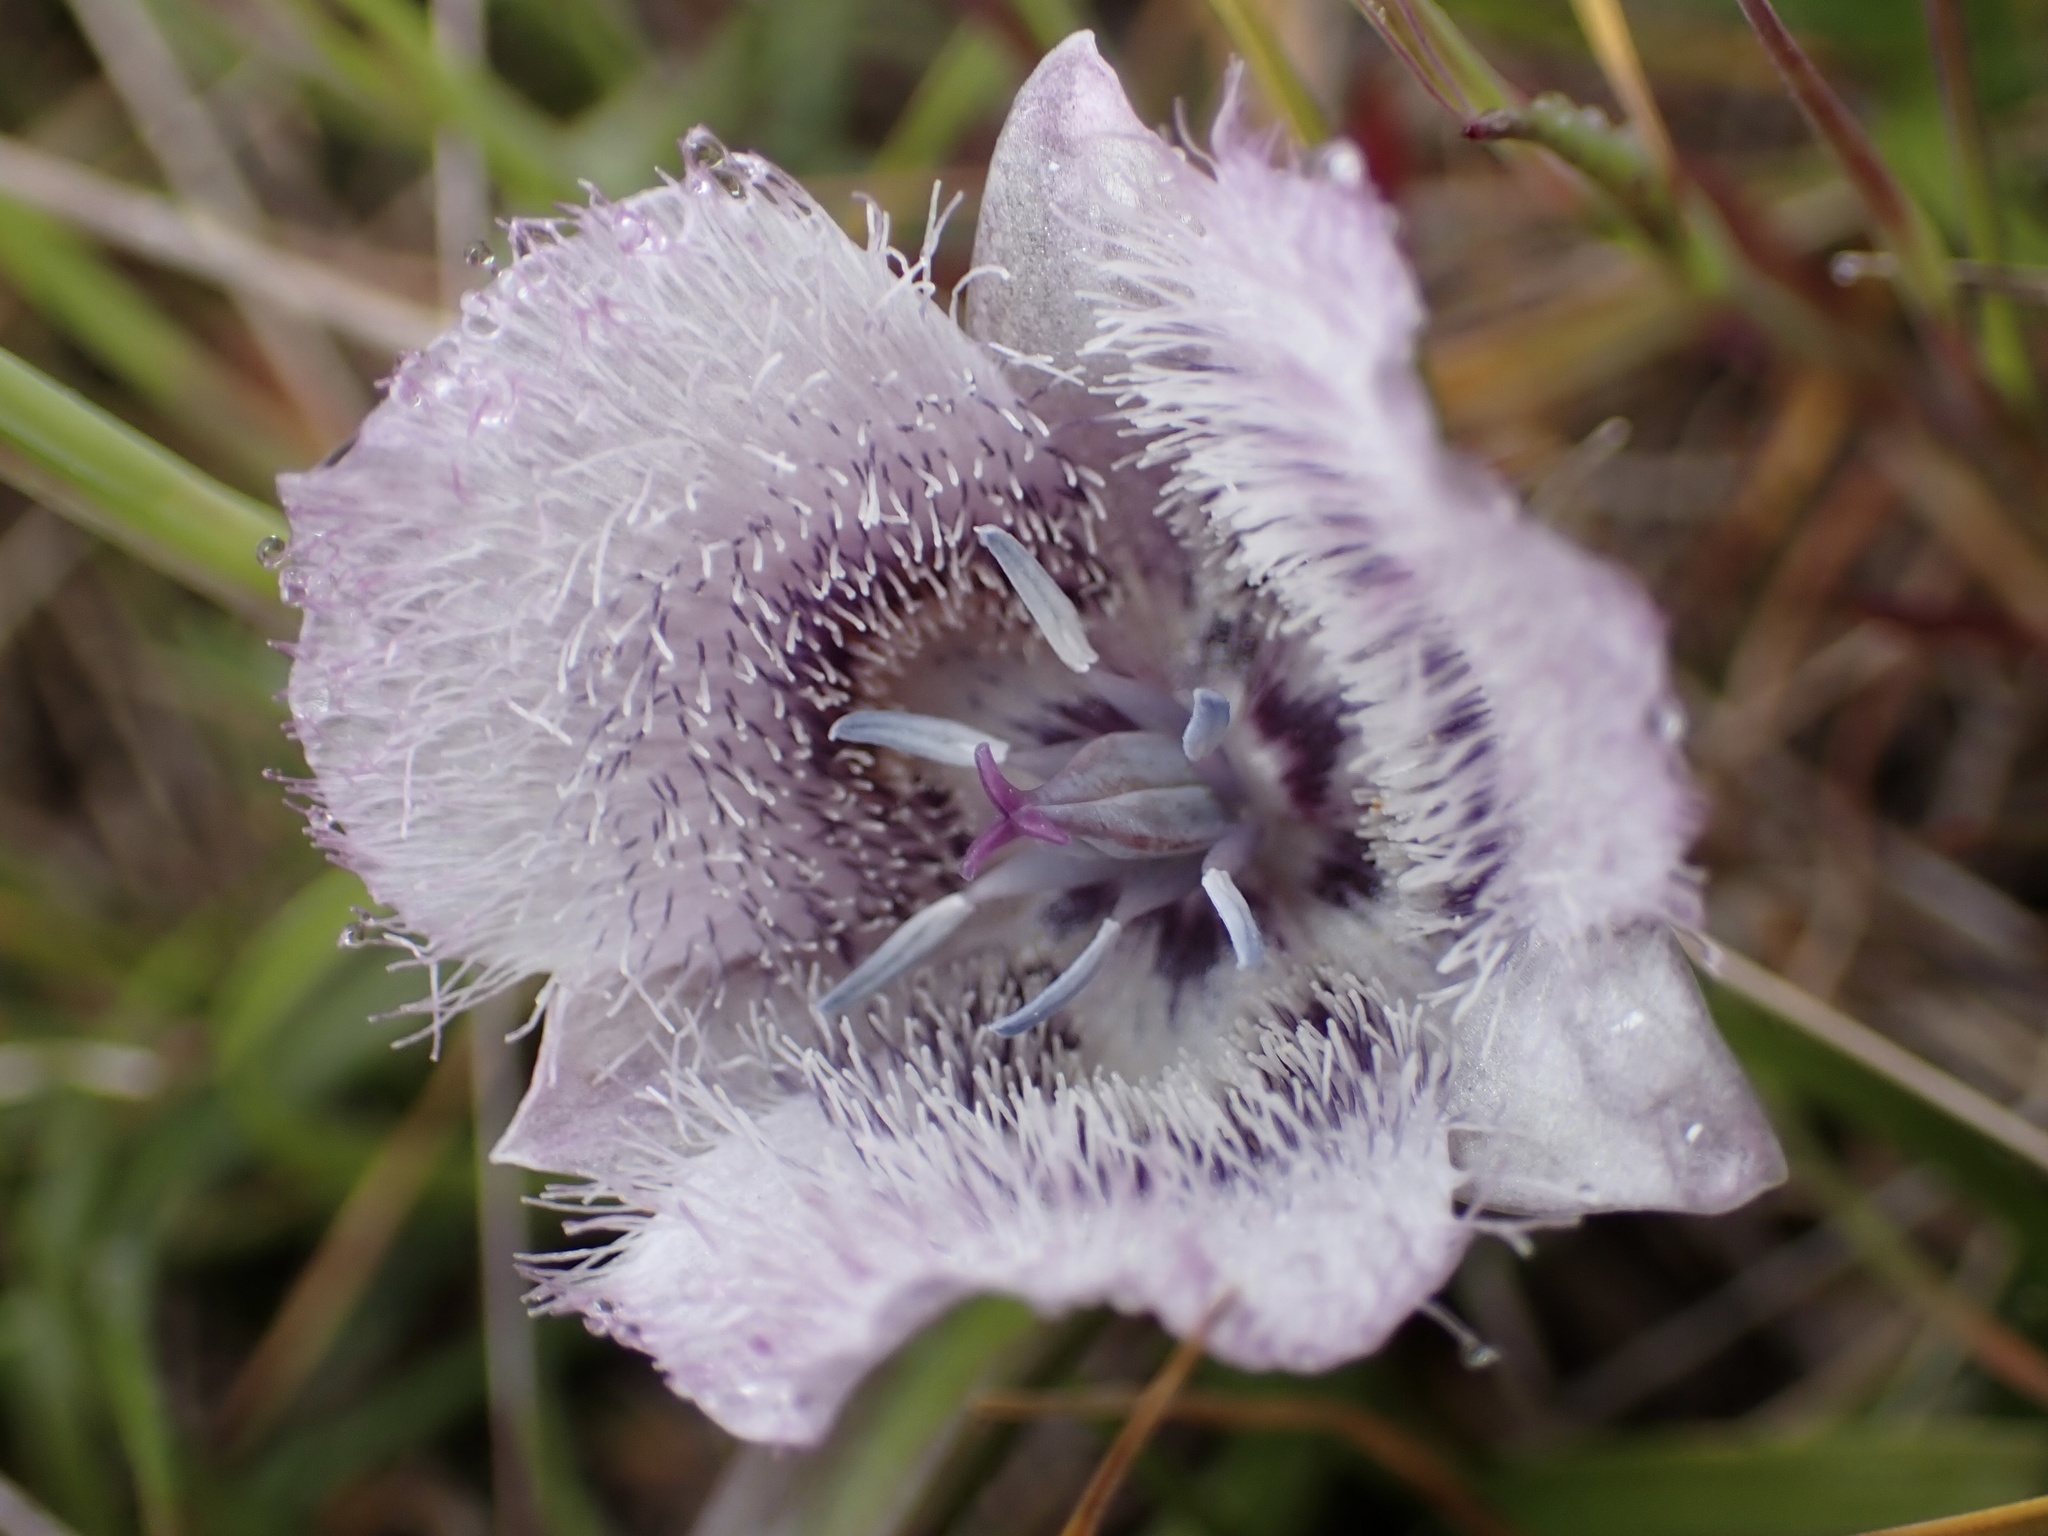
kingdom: Plantae
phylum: Tracheophyta
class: Liliopsida
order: Liliales
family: Liliaceae
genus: Calochortus
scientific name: Calochortus tolmiei
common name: Pussy-ears
